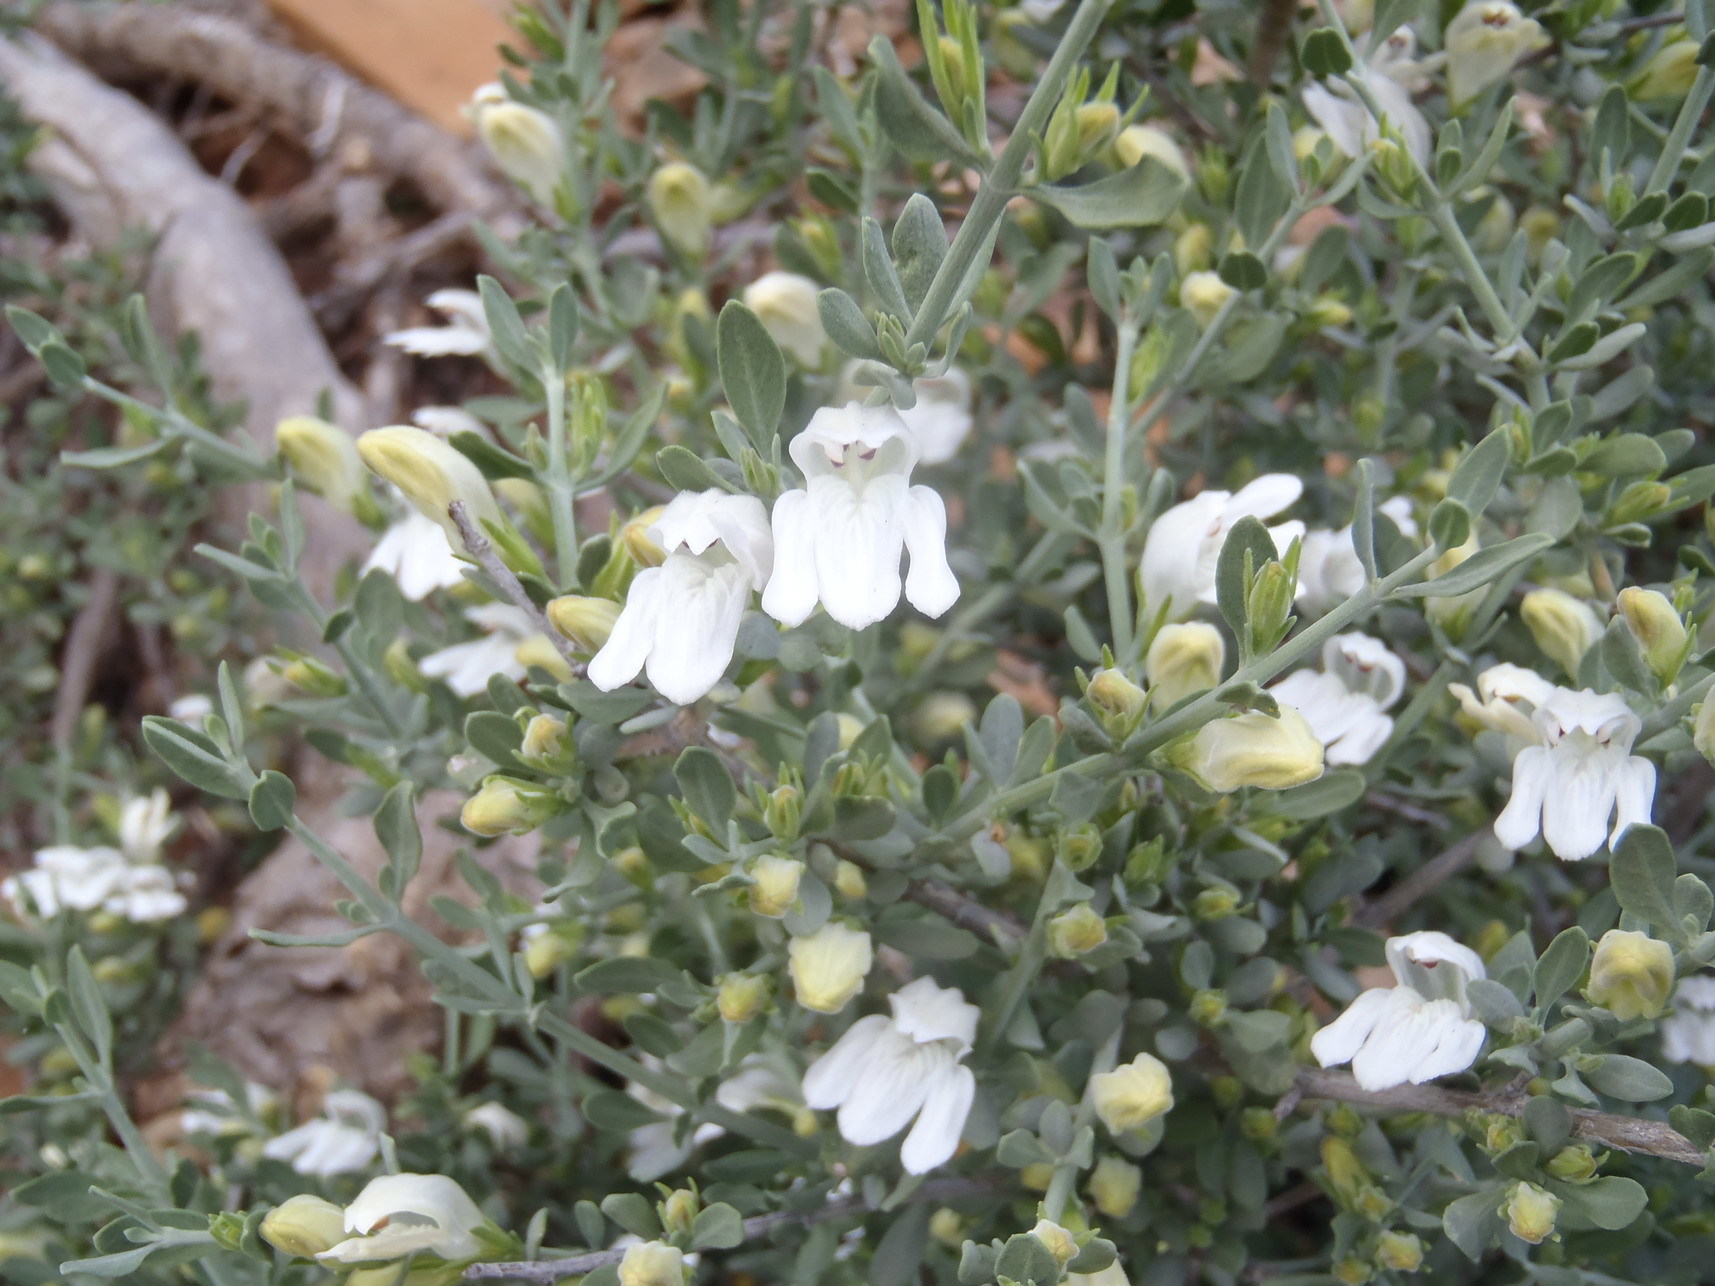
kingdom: Plantae
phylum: Tracheophyta
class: Magnoliopsida
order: Lamiales
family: Acanthaceae
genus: Pogonospermum
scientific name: Pogonospermum
